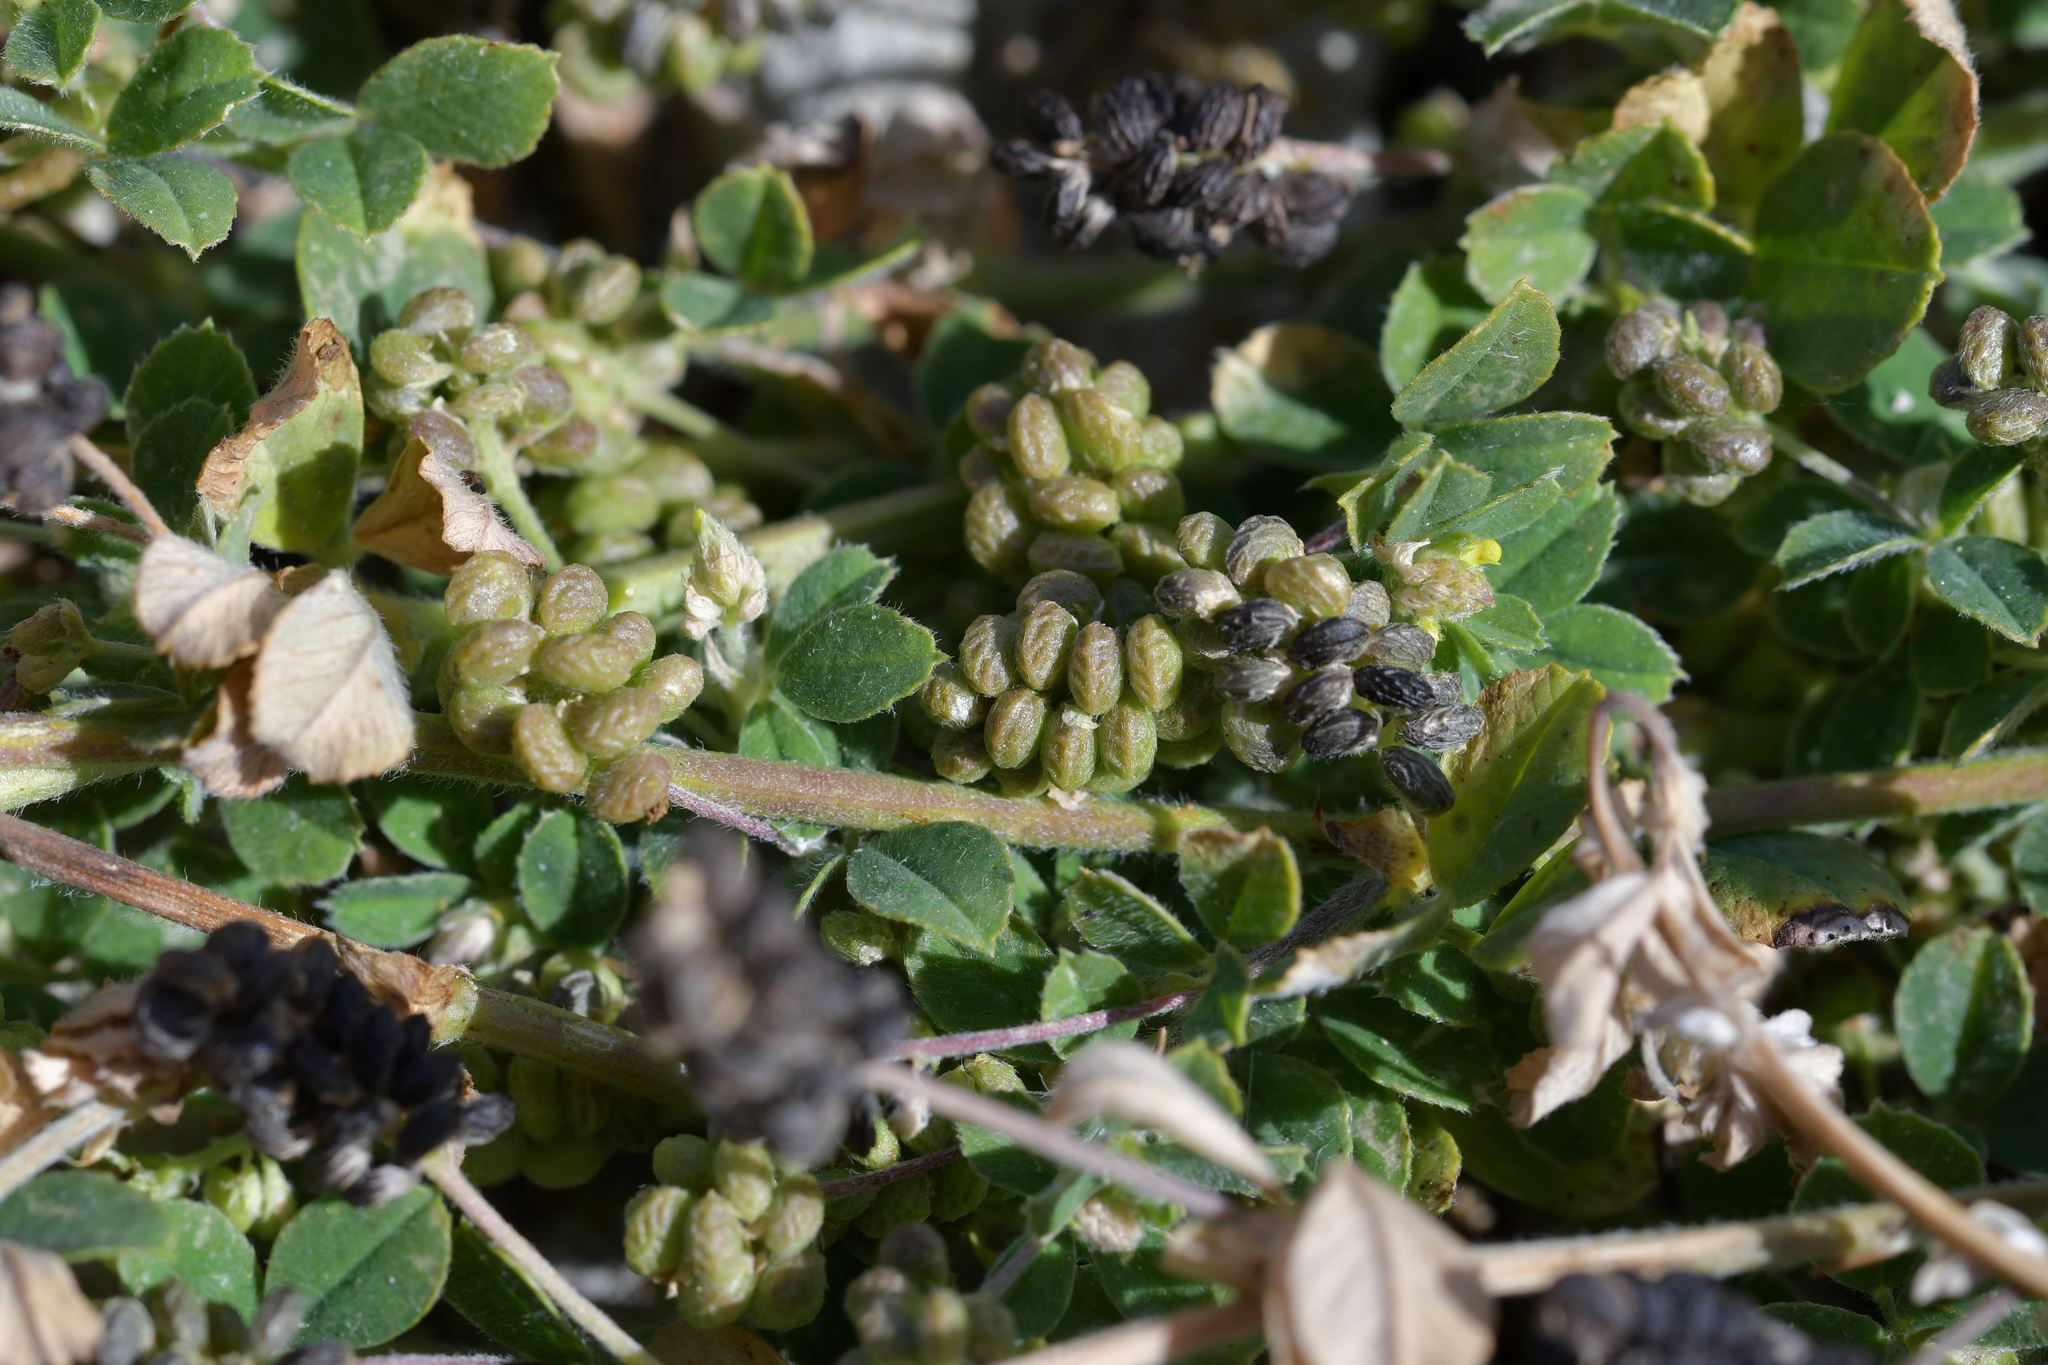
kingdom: Plantae
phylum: Tracheophyta
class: Magnoliopsida
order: Fabales
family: Fabaceae
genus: Medicago
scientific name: Medicago lupulina
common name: Black medick
